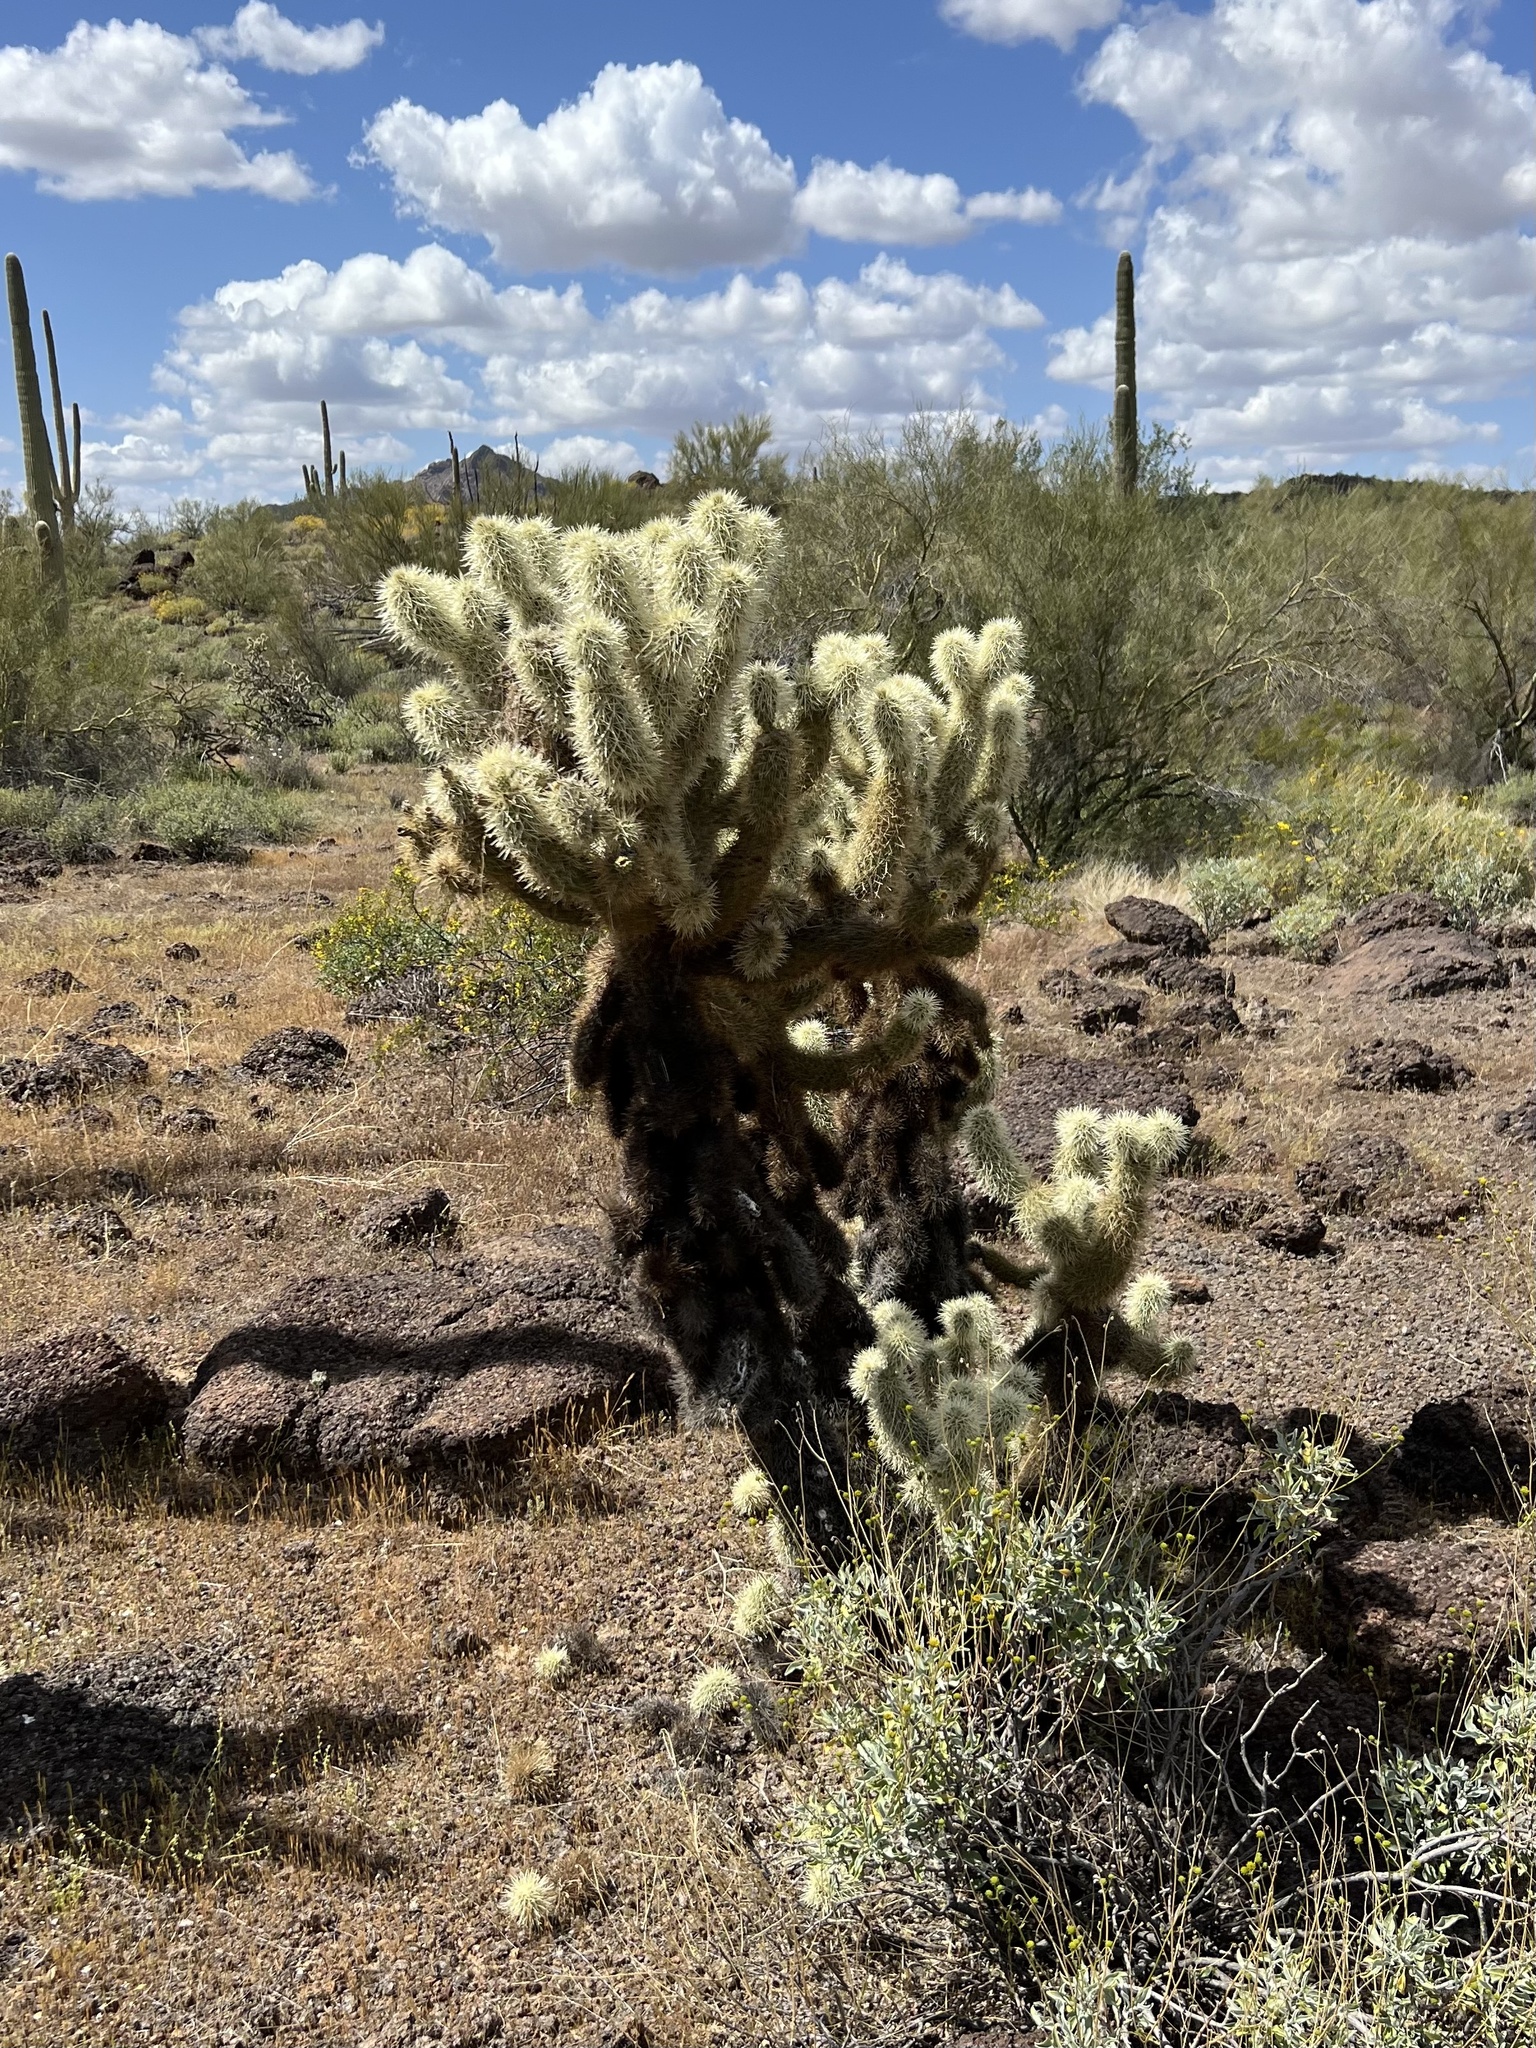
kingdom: Plantae
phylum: Tracheophyta
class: Magnoliopsida
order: Caryophyllales
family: Cactaceae
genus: Cylindropuntia
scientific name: Cylindropuntia fosbergii
